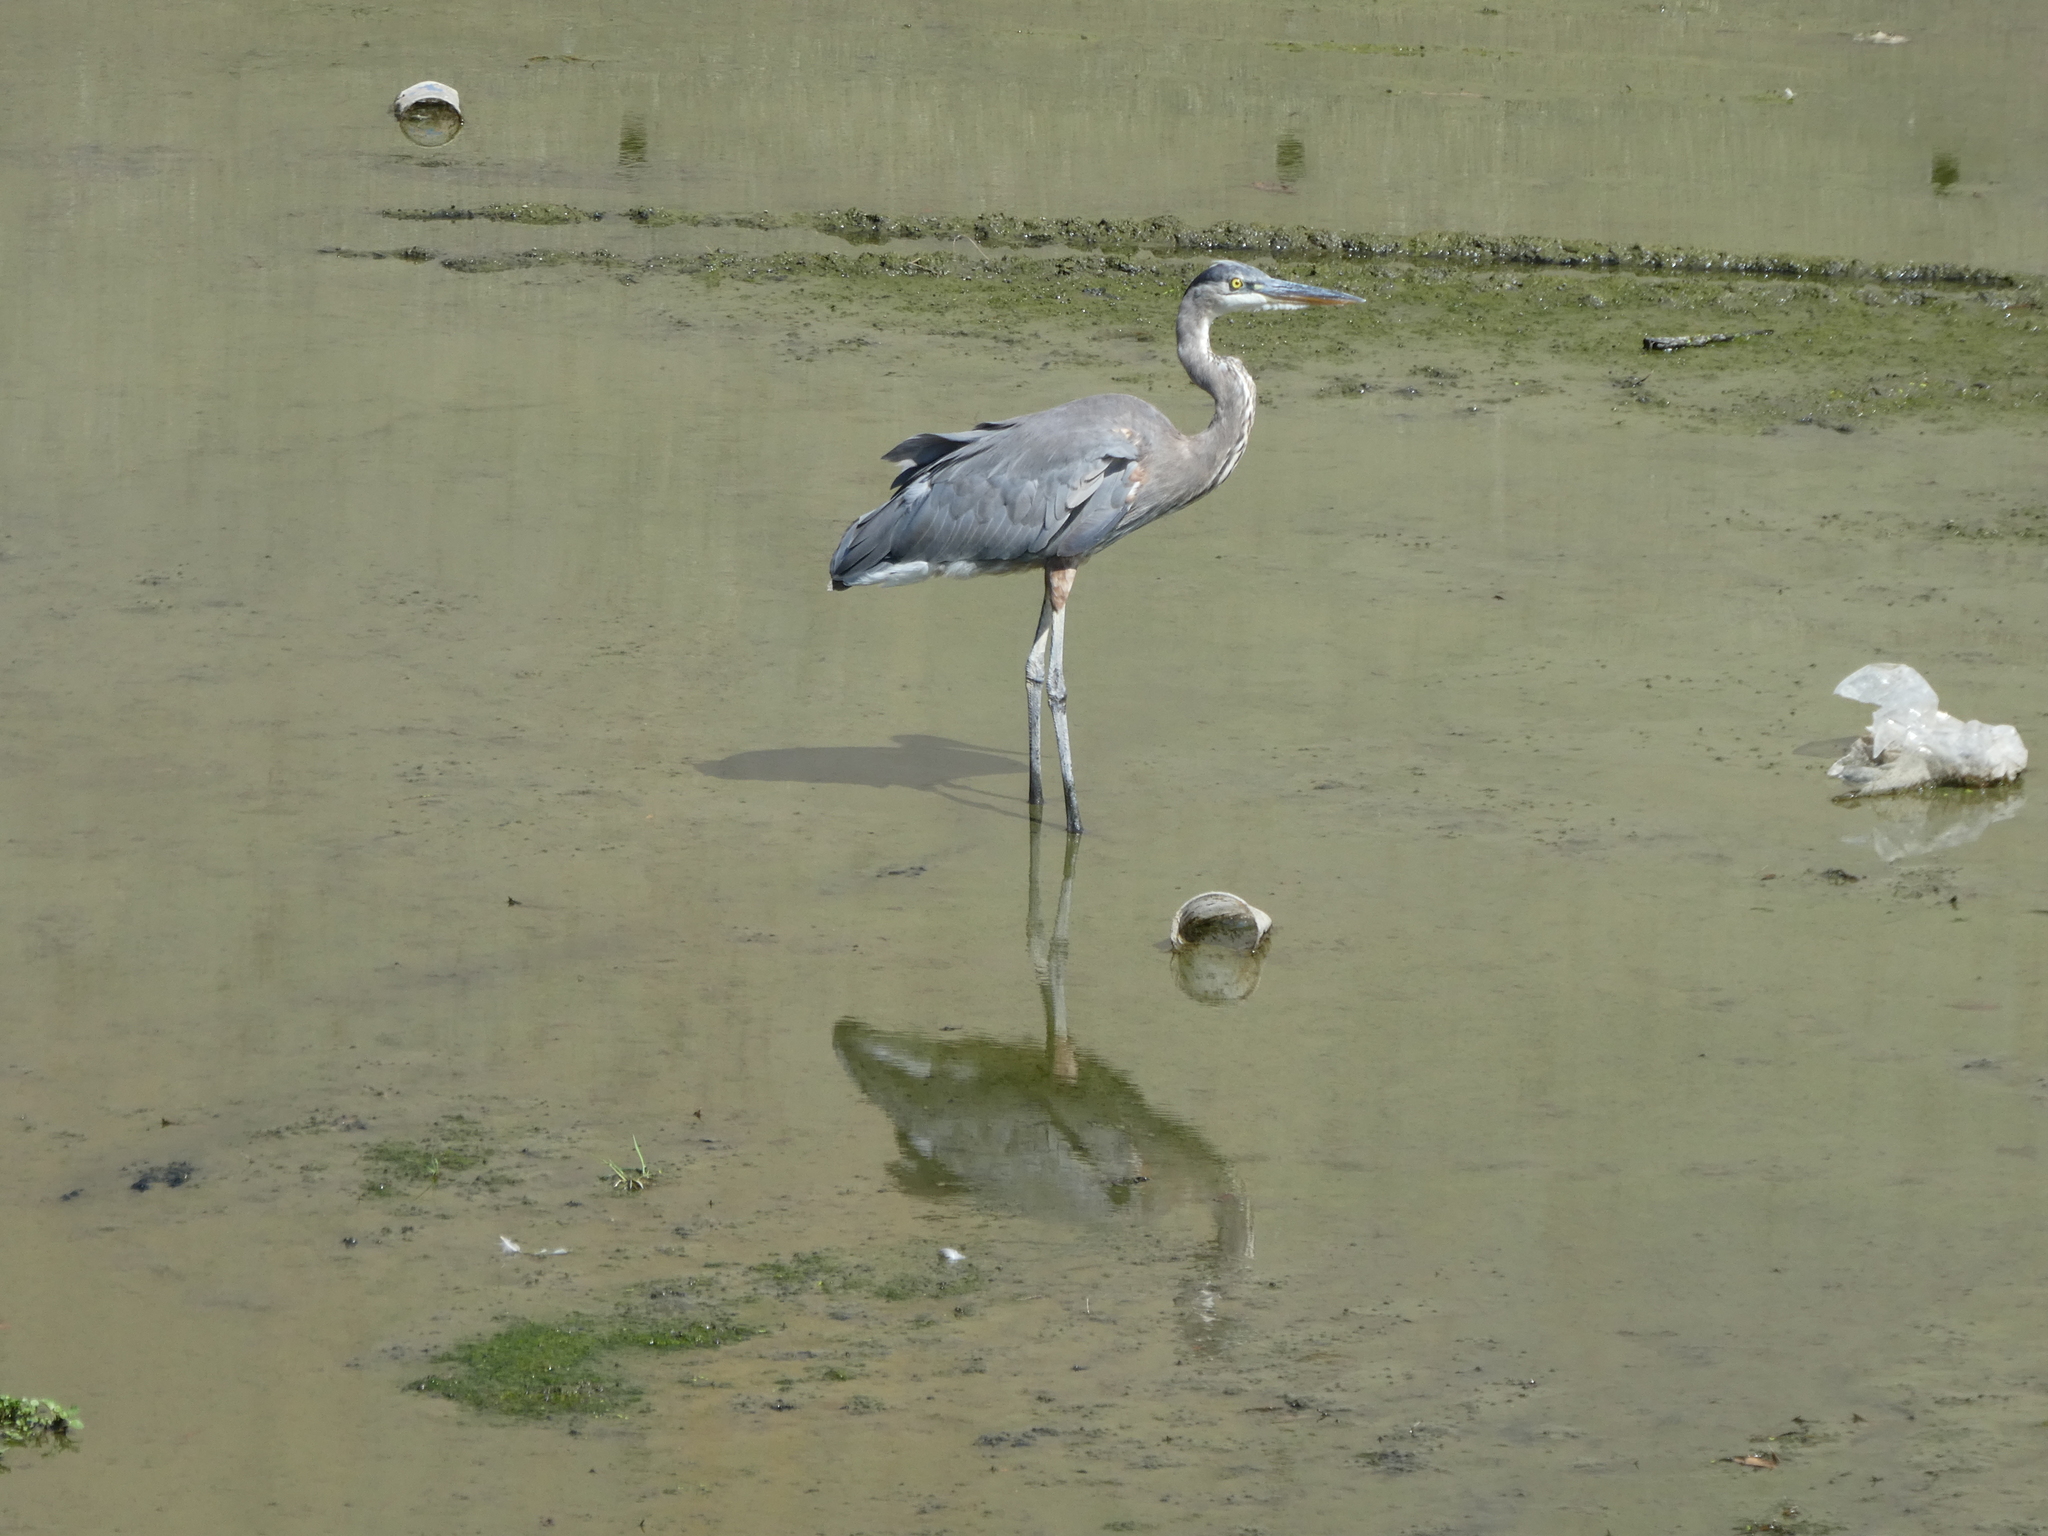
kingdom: Animalia
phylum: Chordata
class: Aves
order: Pelecaniformes
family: Ardeidae
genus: Ardea
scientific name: Ardea herodias
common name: Great blue heron
